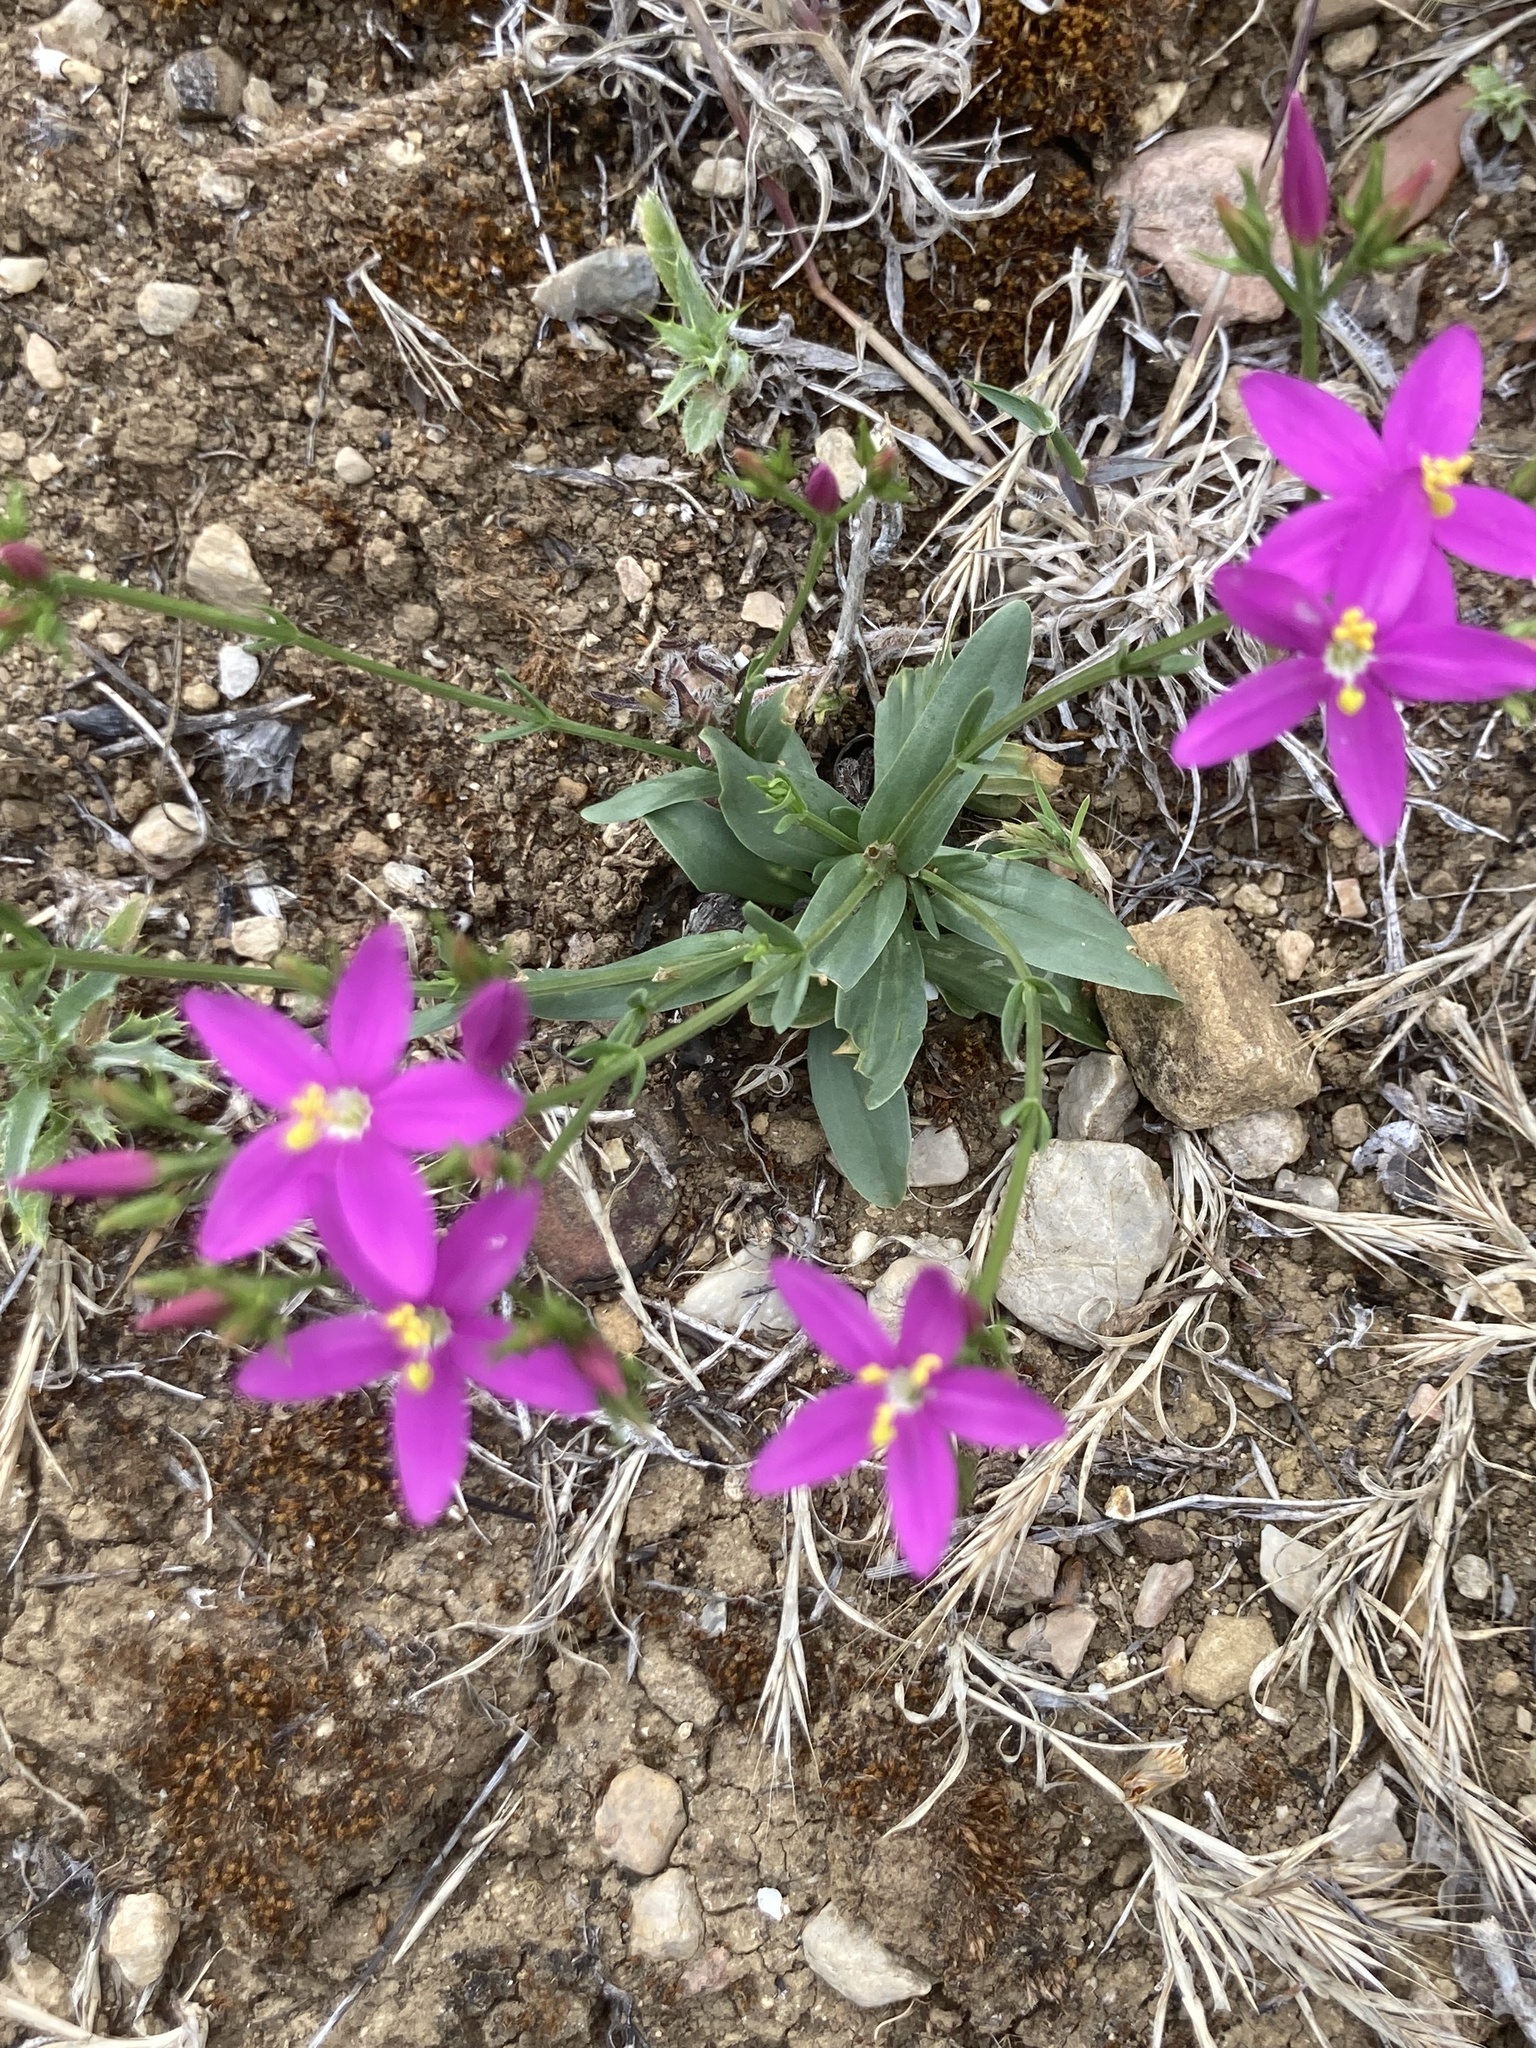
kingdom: Plantae
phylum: Tracheophyta
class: Magnoliopsida
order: Gentianales
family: Gentianaceae
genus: Centaurium
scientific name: Centaurium erythraea
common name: Common centaury
